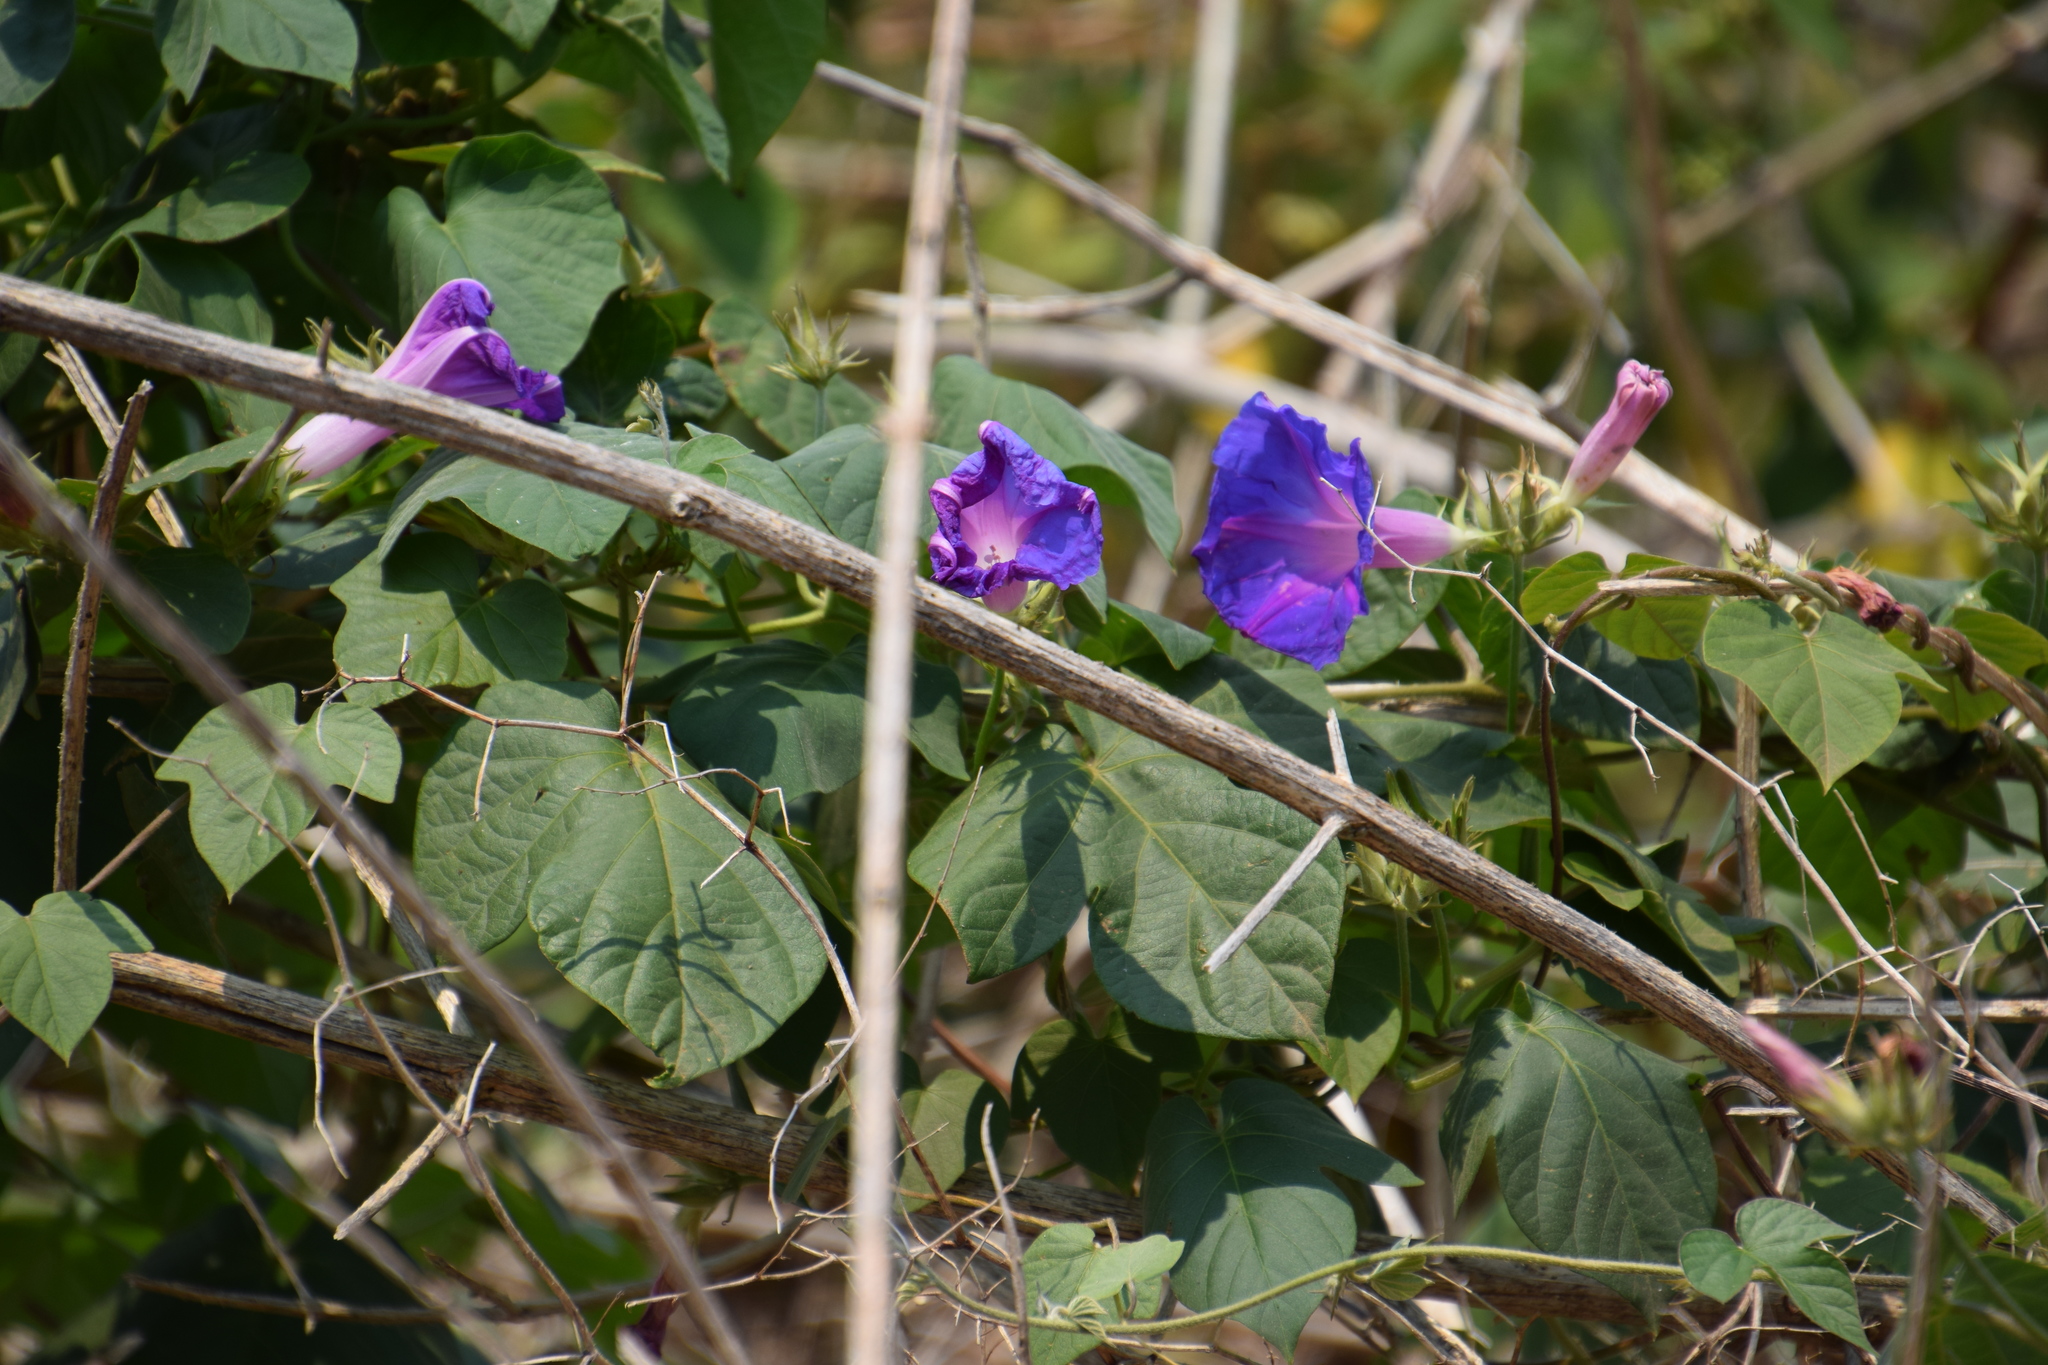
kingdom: Plantae
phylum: Tracheophyta
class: Magnoliopsida
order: Solanales
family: Convolvulaceae
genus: Ipomoea
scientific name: Ipomoea indica
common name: Blue dawnflower
